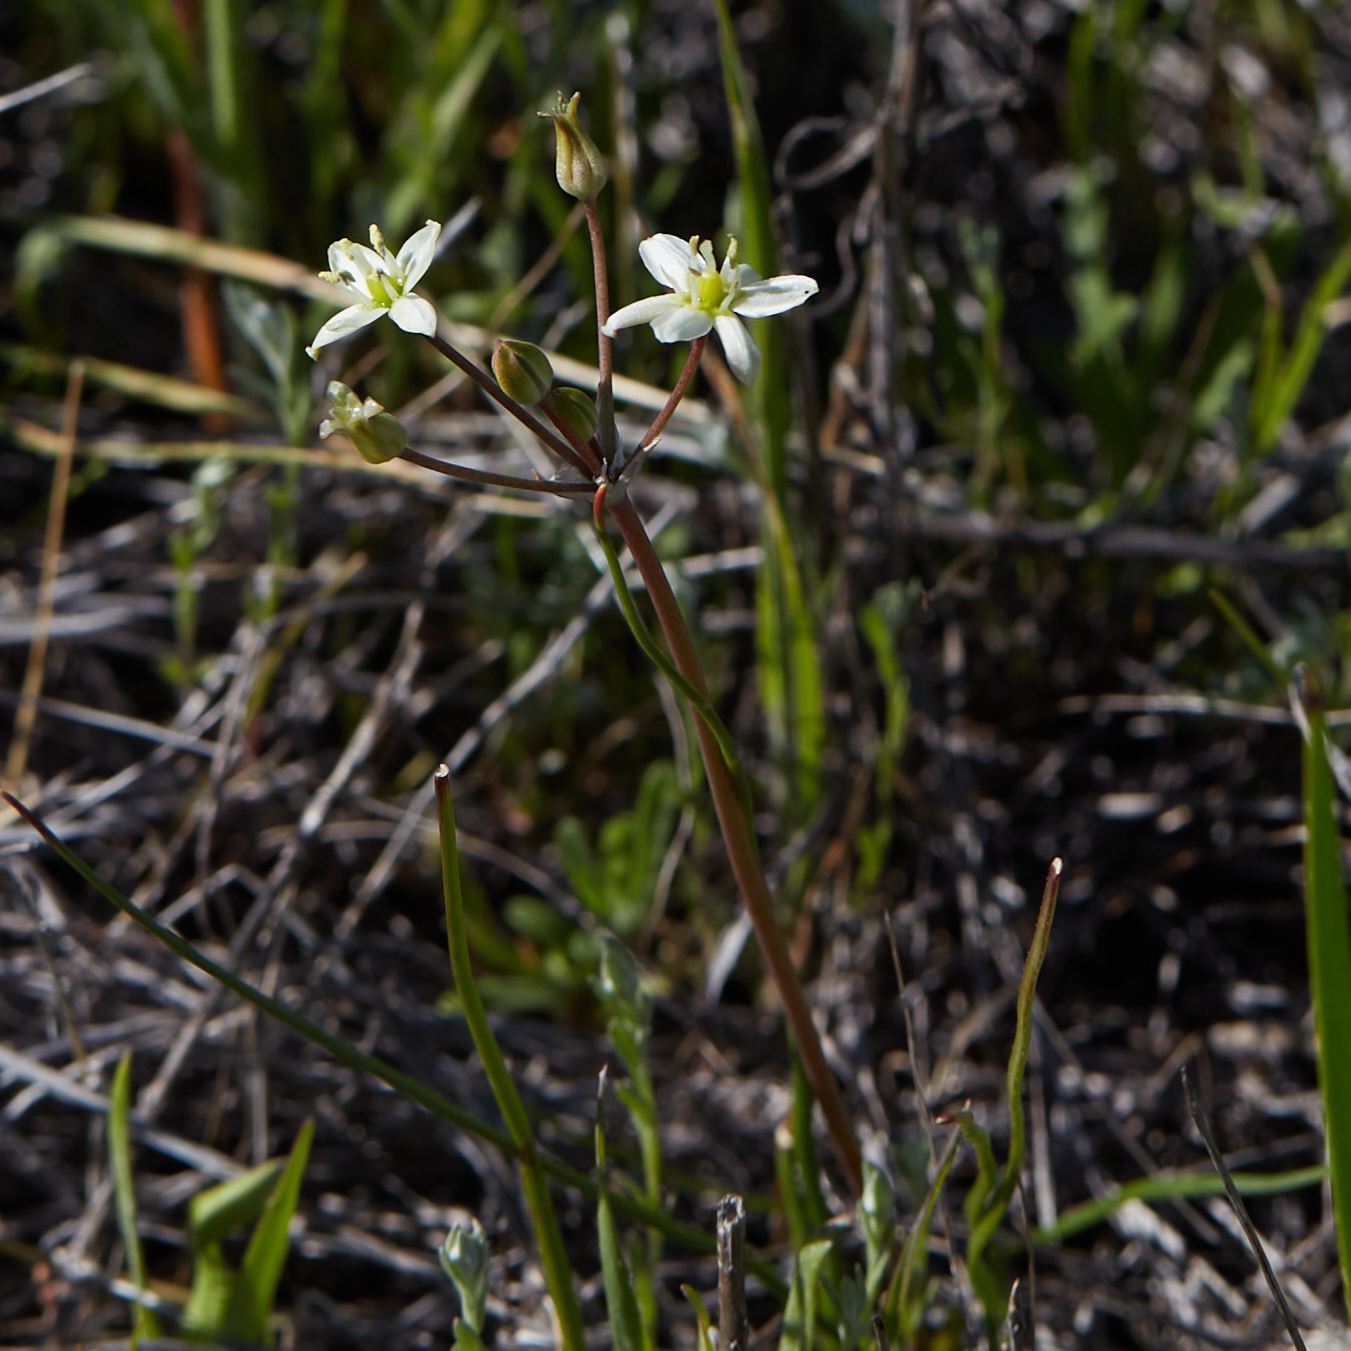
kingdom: Plantae
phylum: Tracheophyta
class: Liliopsida
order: Asparagales
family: Asparagaceae
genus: Muilla
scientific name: Muilla maritima
